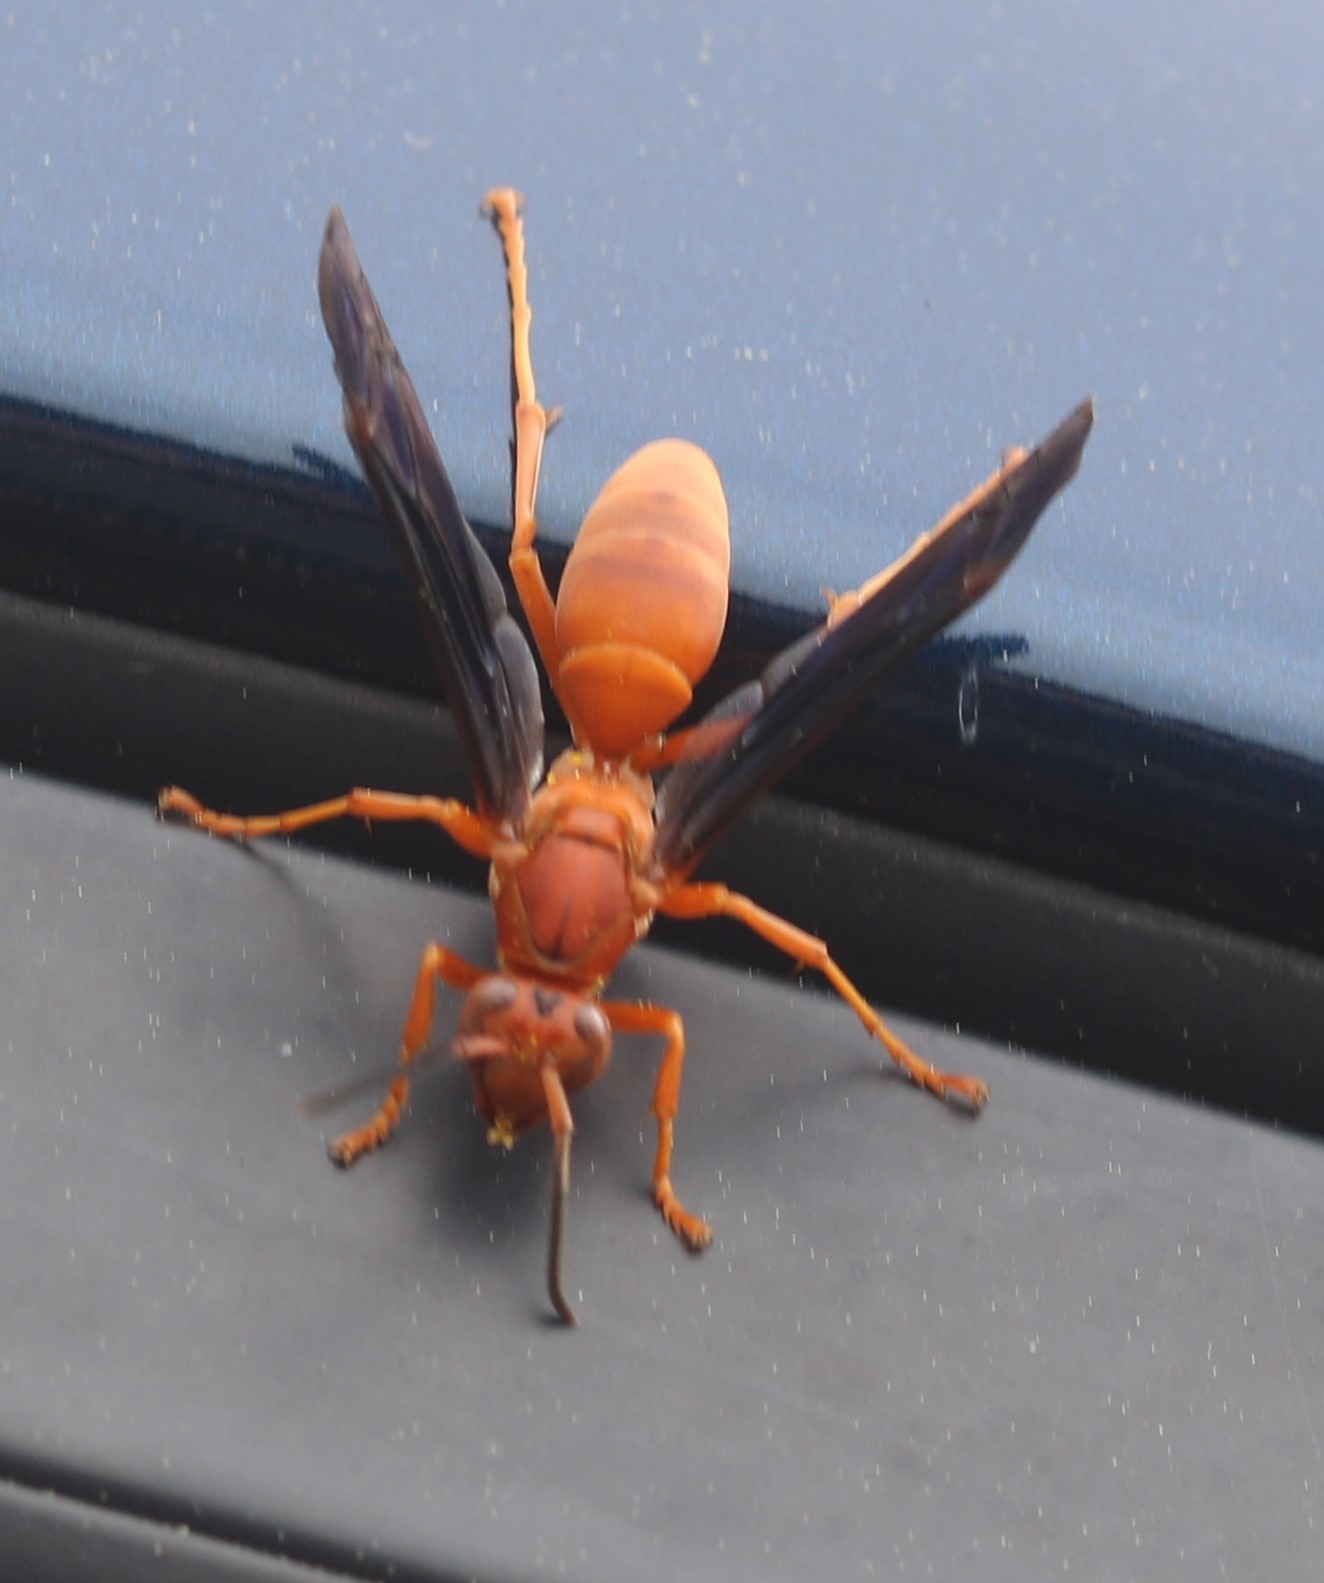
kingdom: Animalia
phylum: Arthropoda
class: Insecta
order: Hymenoptera
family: Eumenidae
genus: Polistes
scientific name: Polistes
